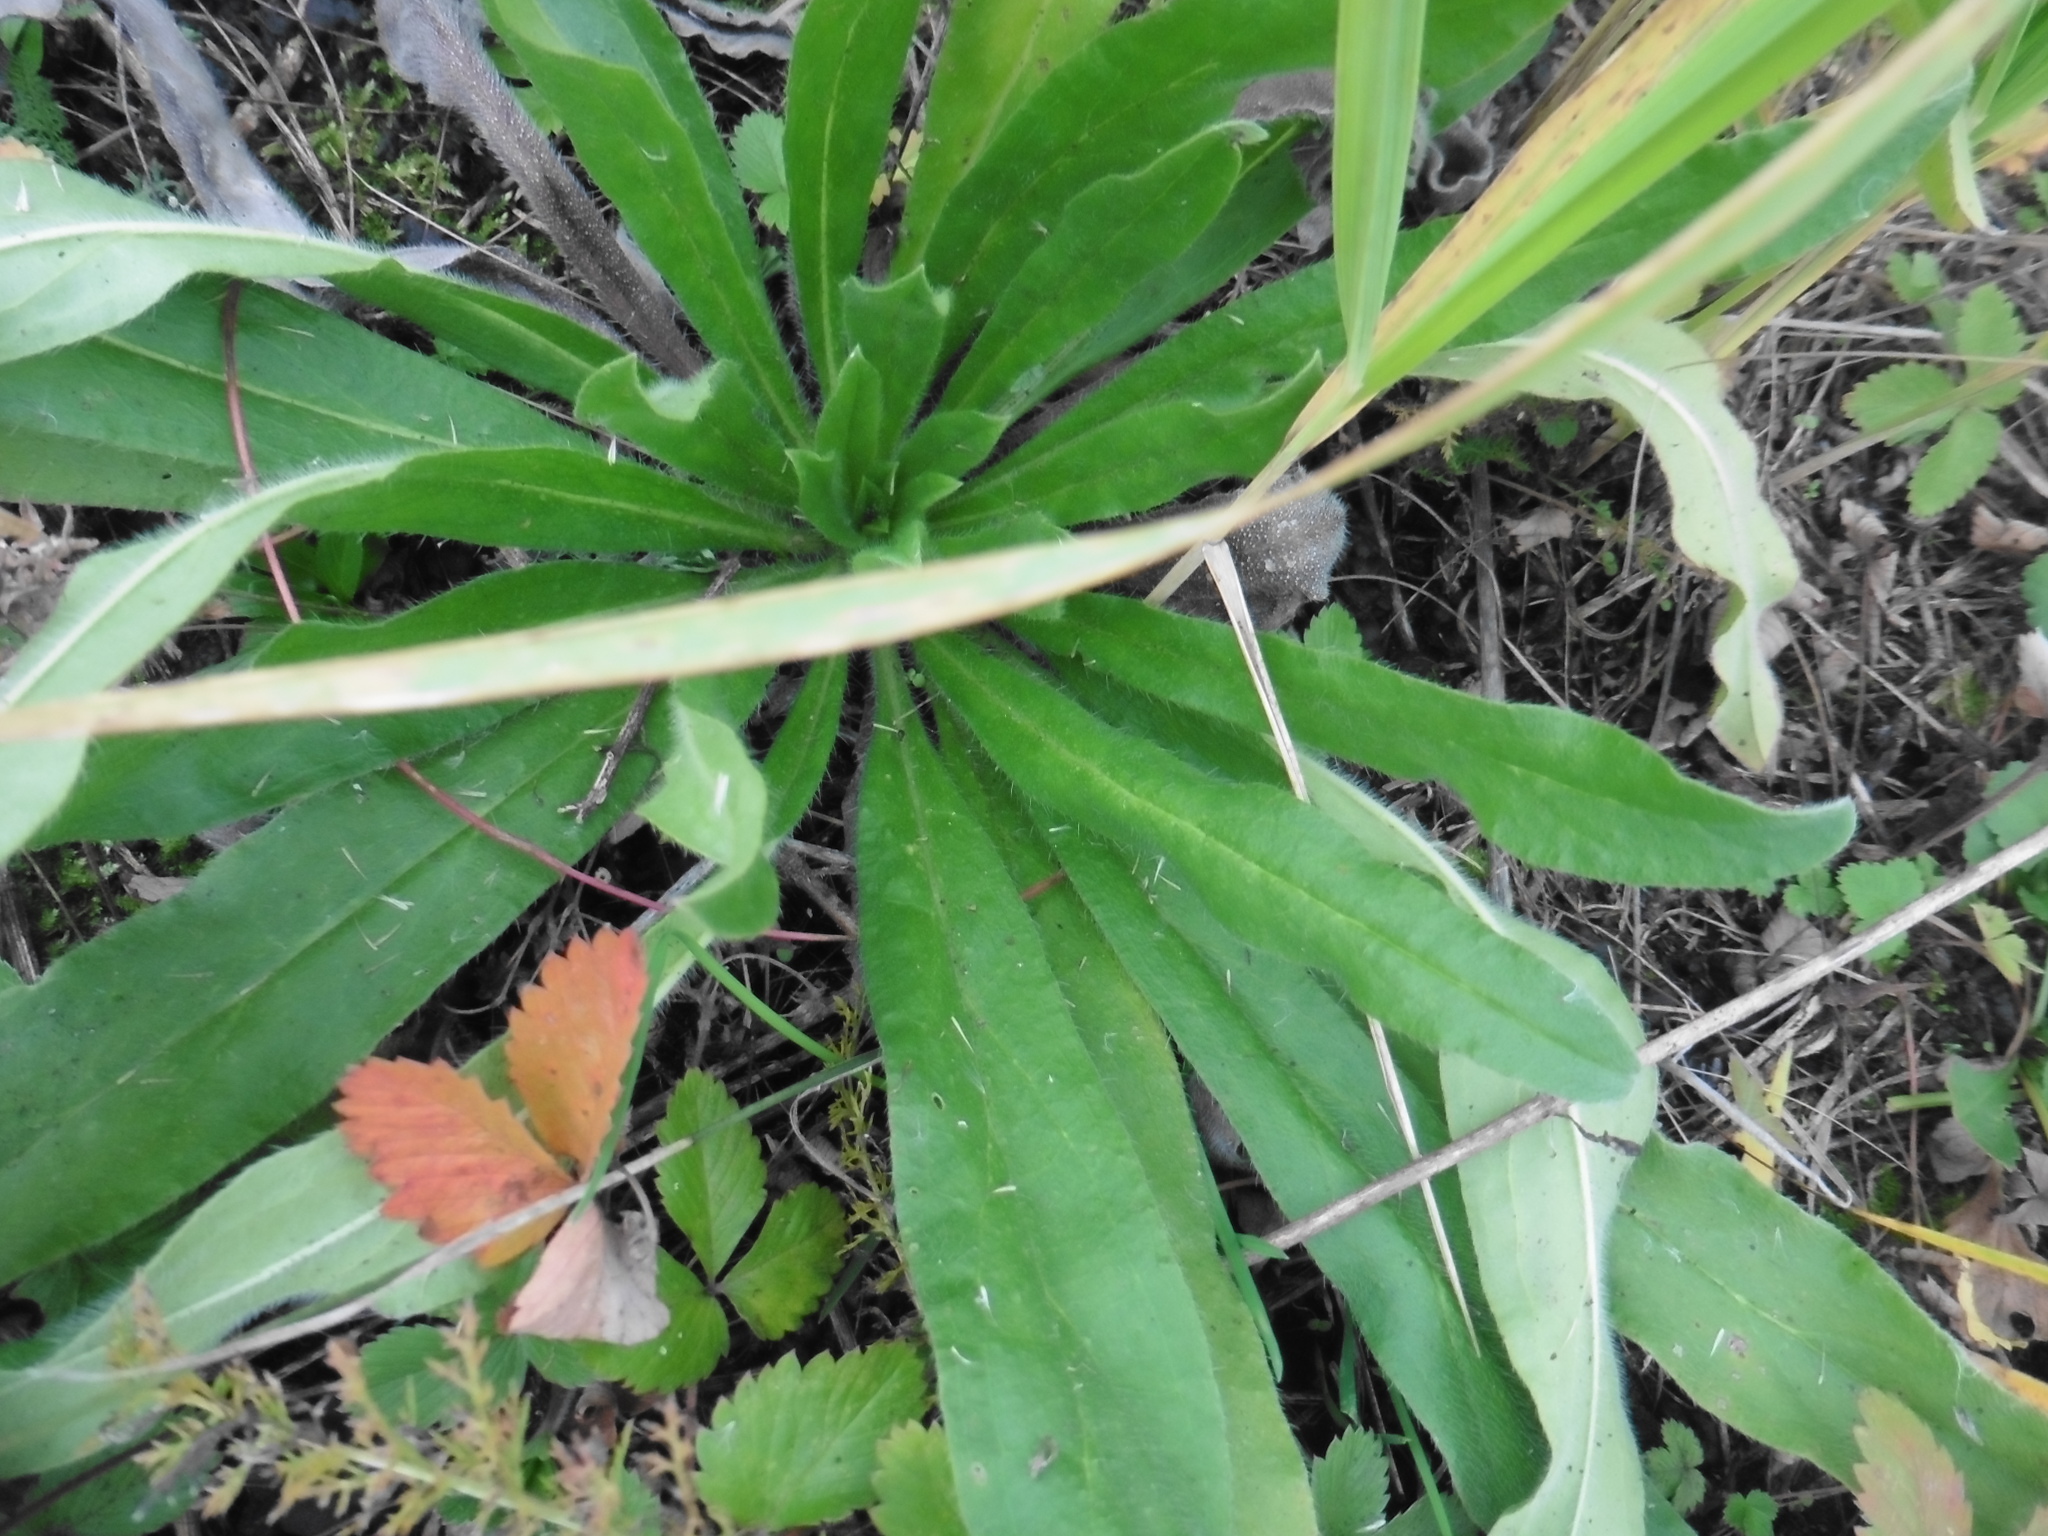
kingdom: Plantae
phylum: Tracheophyta
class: Magnoliopsida
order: Boraginales
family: Boraginaceae
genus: Echium
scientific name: Echium vulgare
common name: Common viper's bugloss
